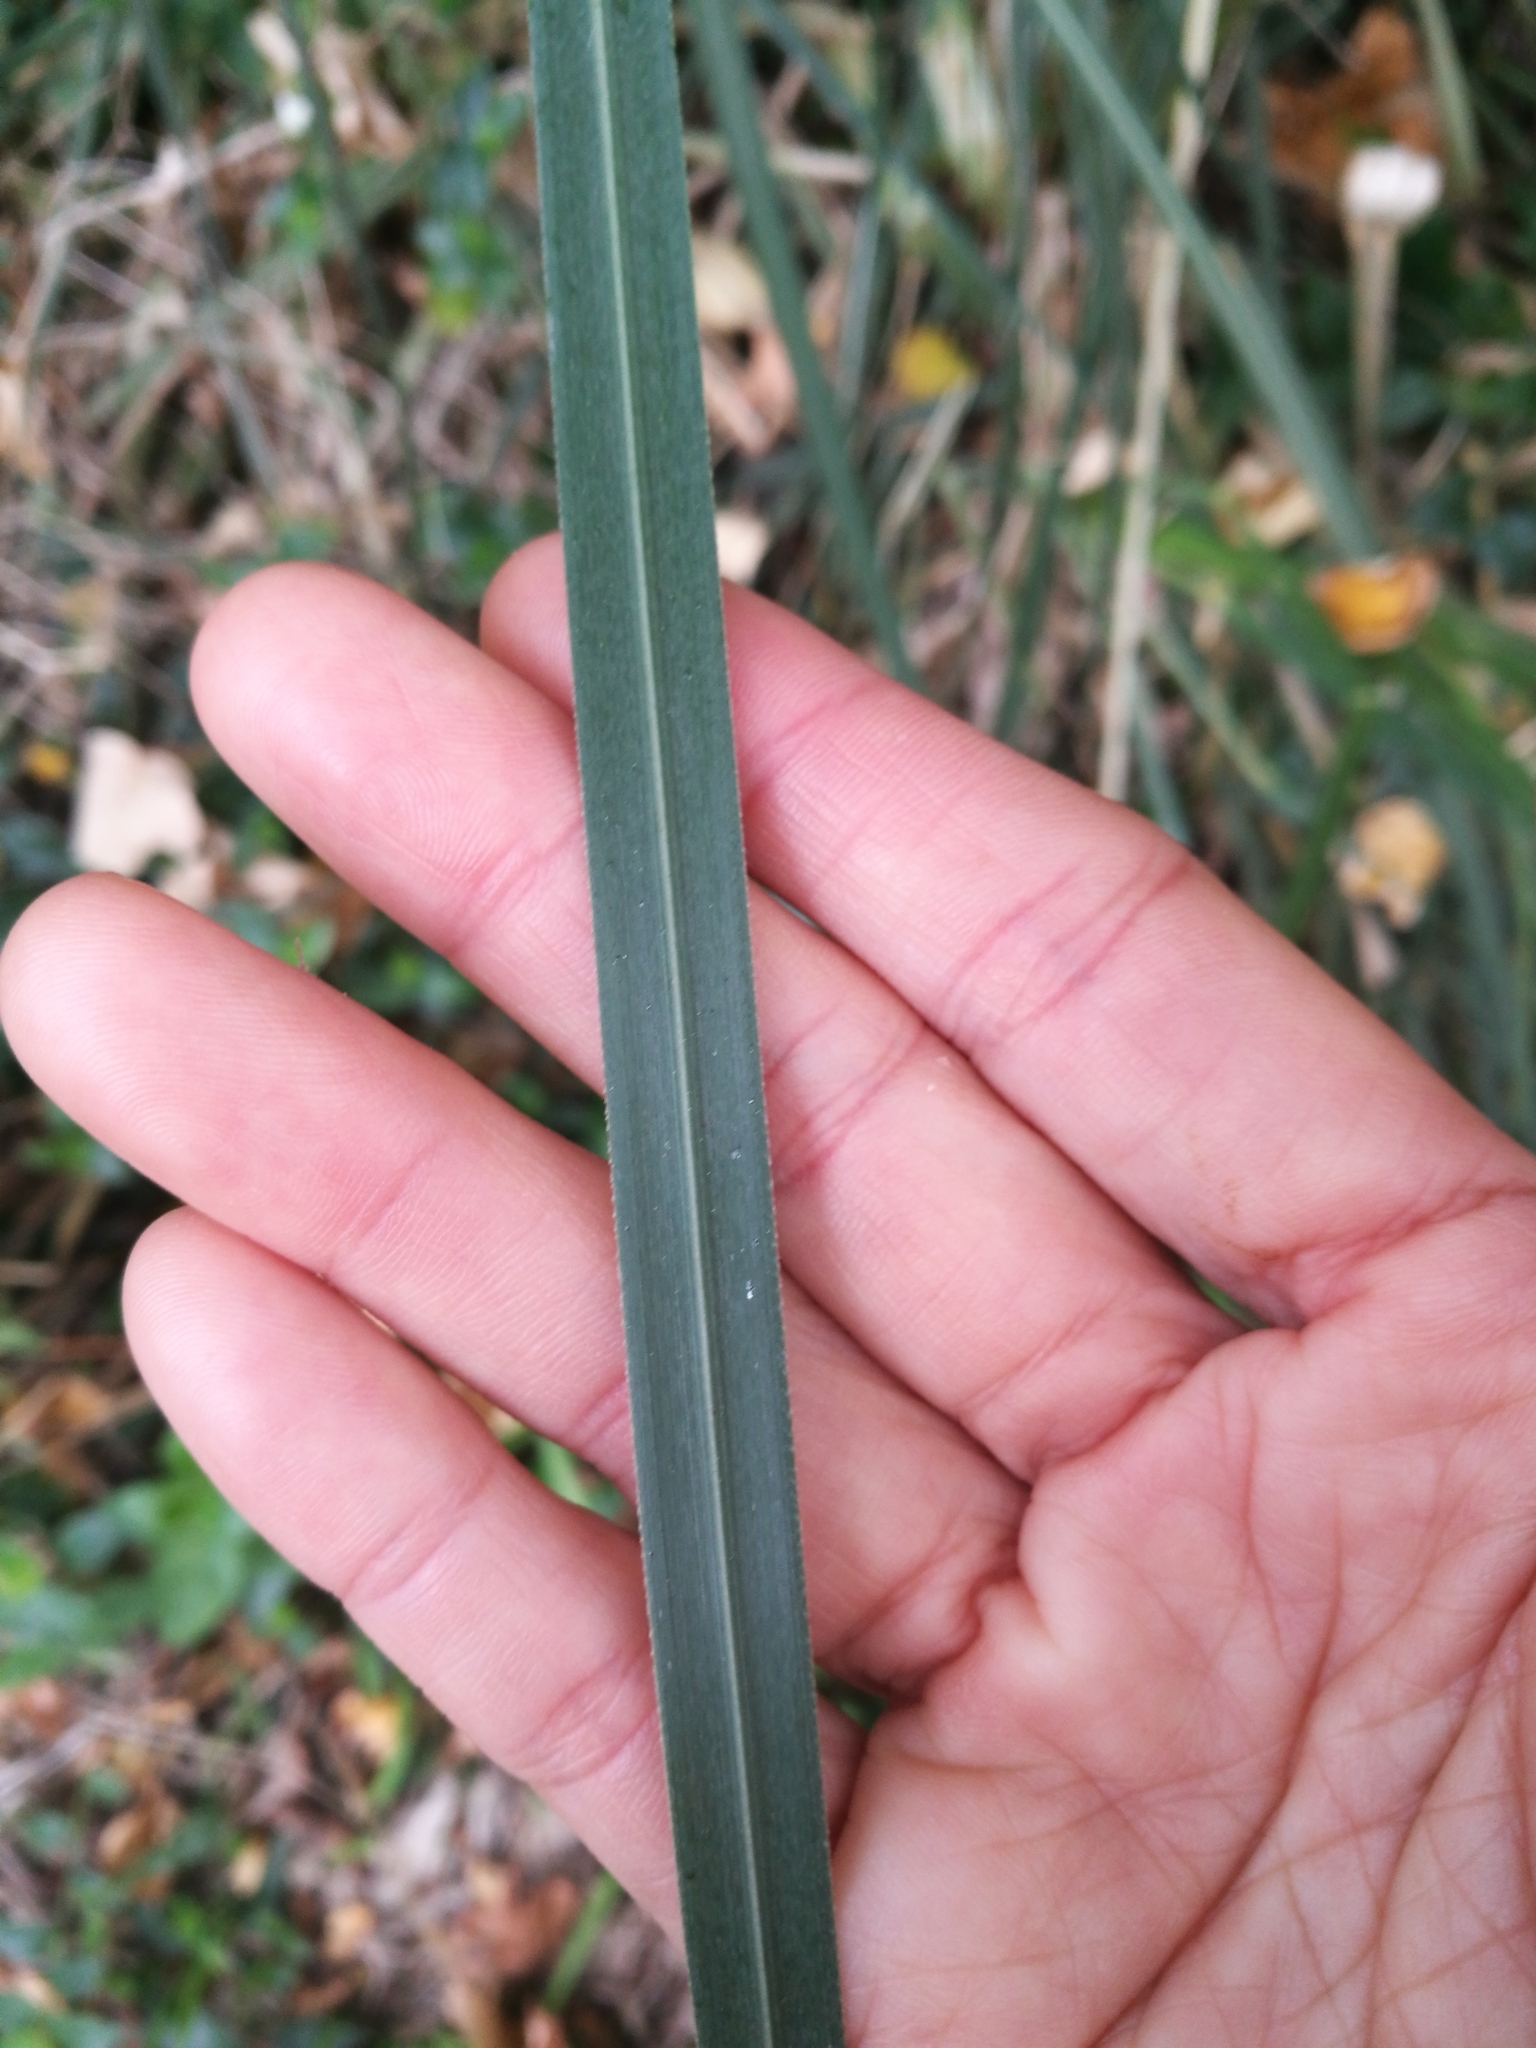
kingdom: Plantae
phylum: Tracheophyta
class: Liliopsida
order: Poales
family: Poaceae
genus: Cortaderia
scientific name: Cortaderia selloana
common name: Uruguayan pampas grass
